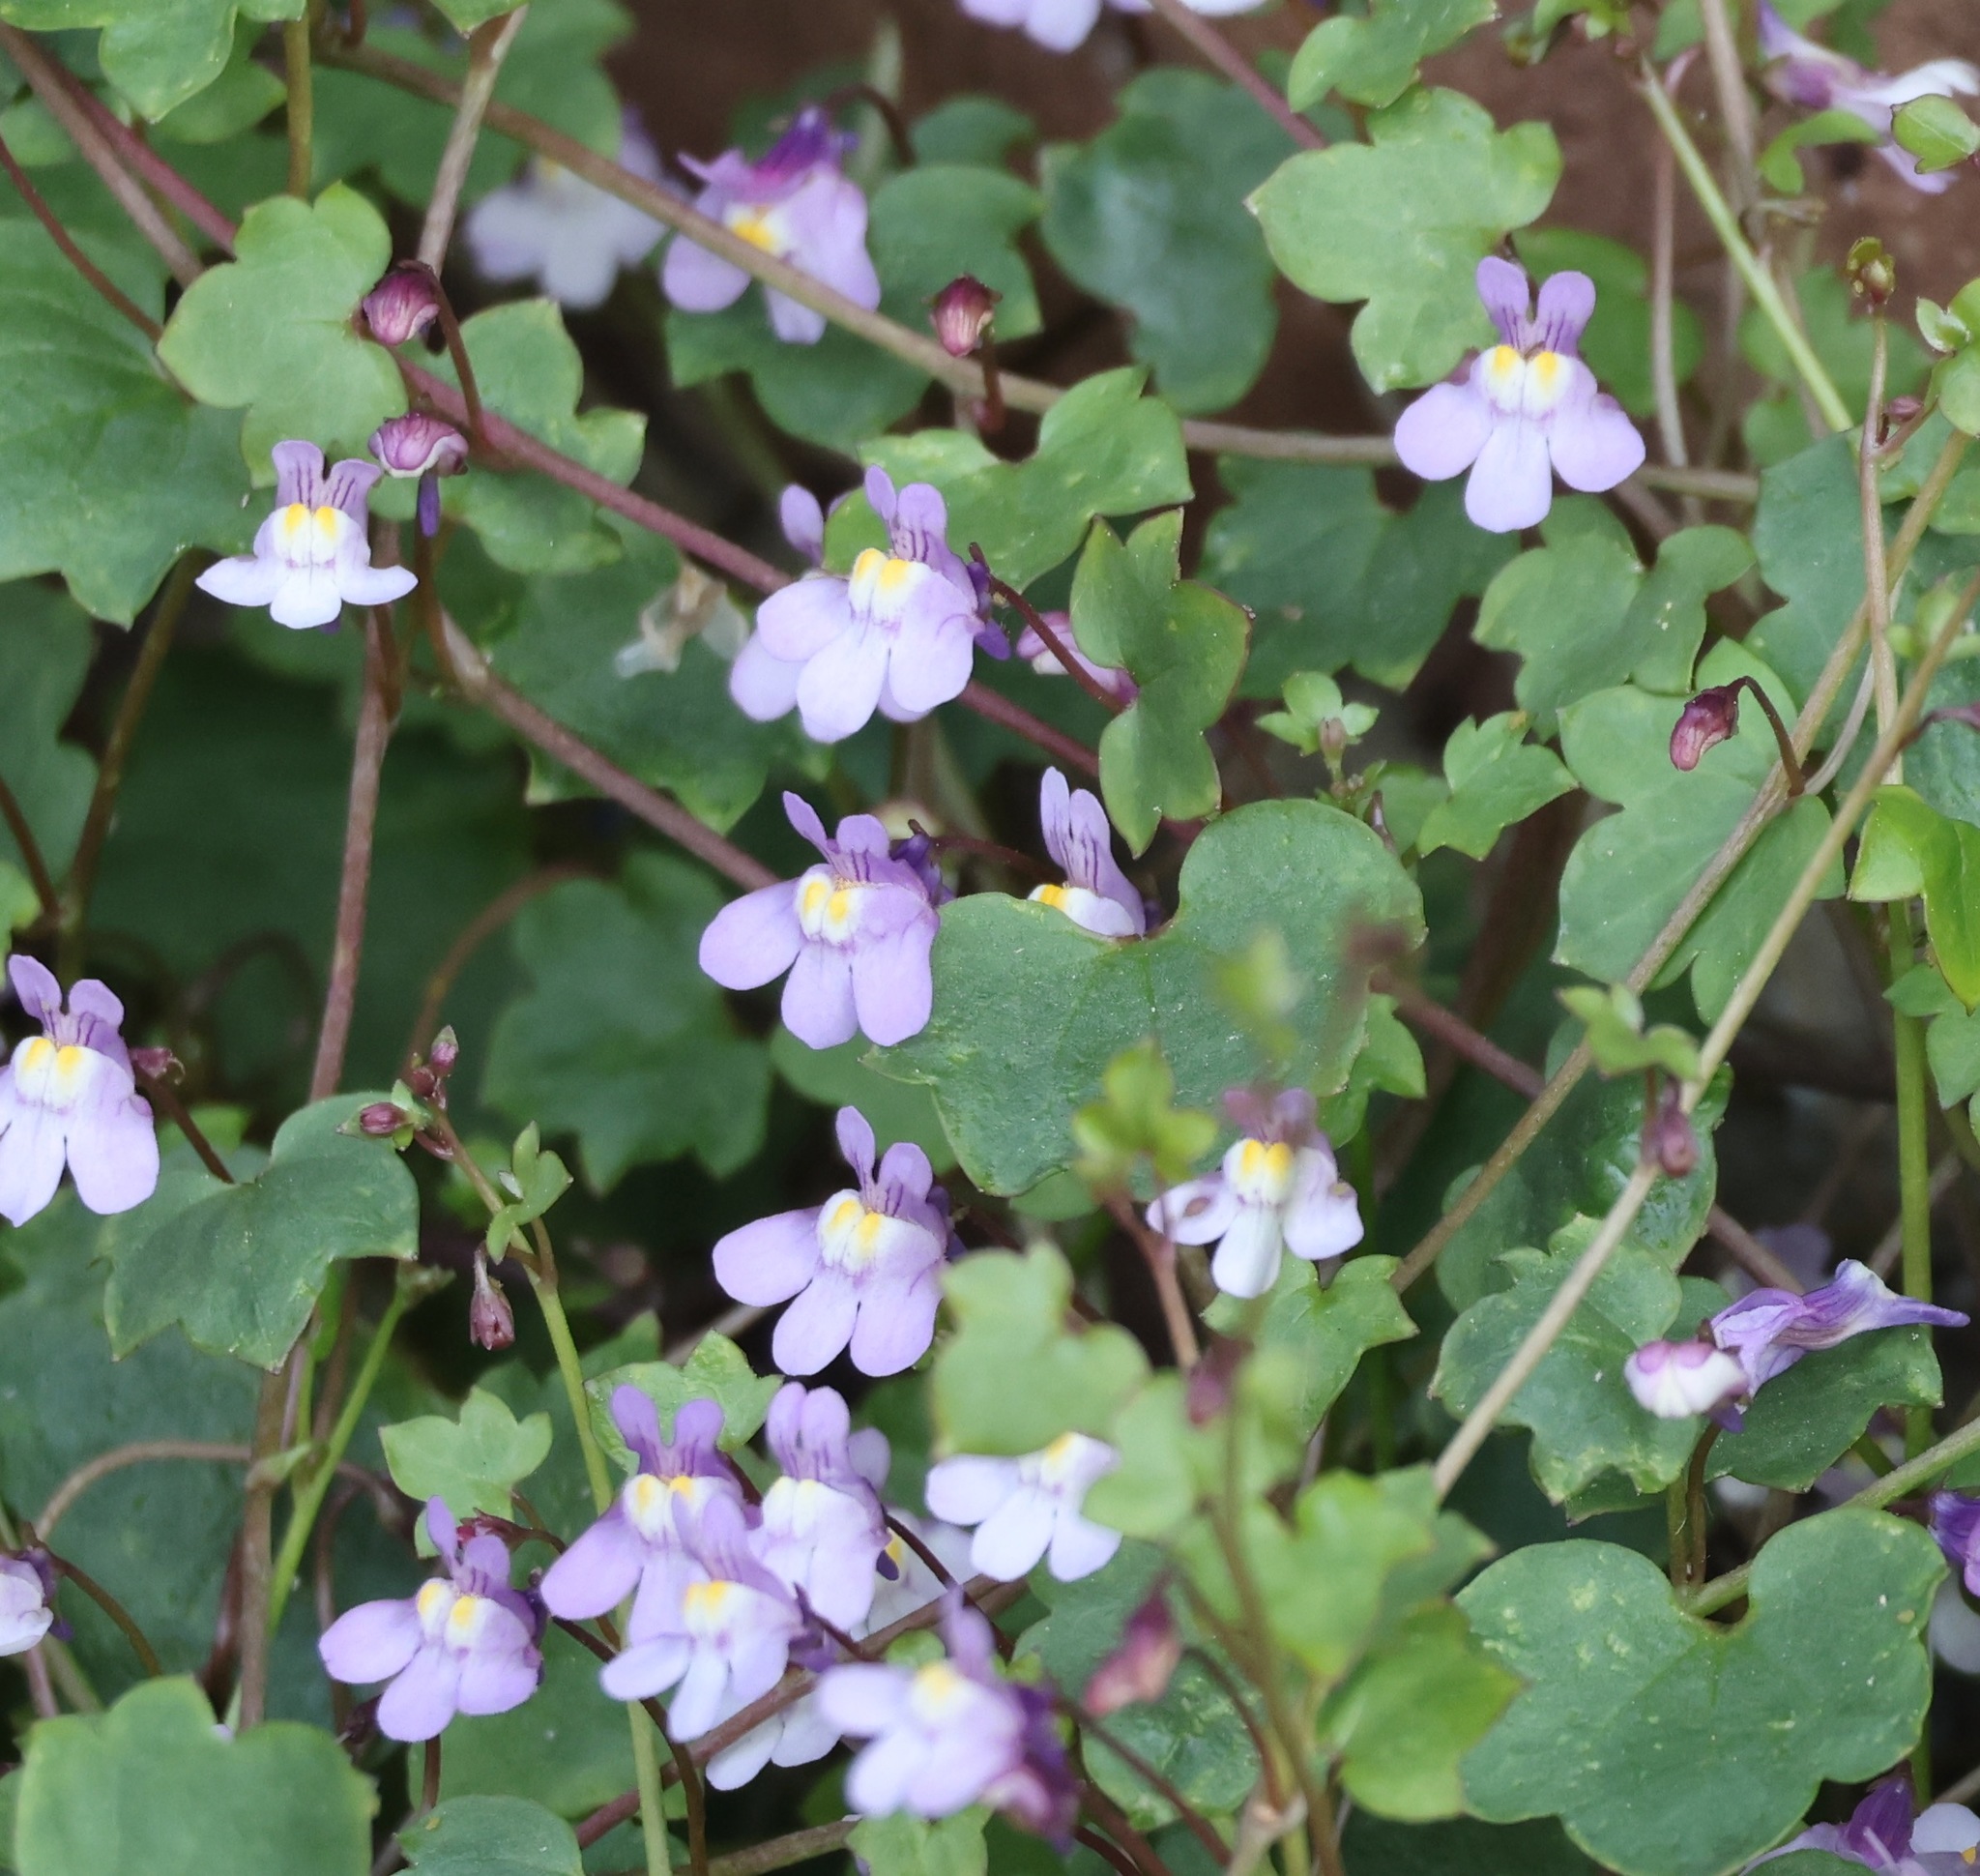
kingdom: Plantae
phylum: Tracheophyta
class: Magnoliopsida
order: Lamiales
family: Plantaginaceae
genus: Cymbalaria
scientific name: Cymbalaria muralis
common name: Ivy-leaved toadflax
